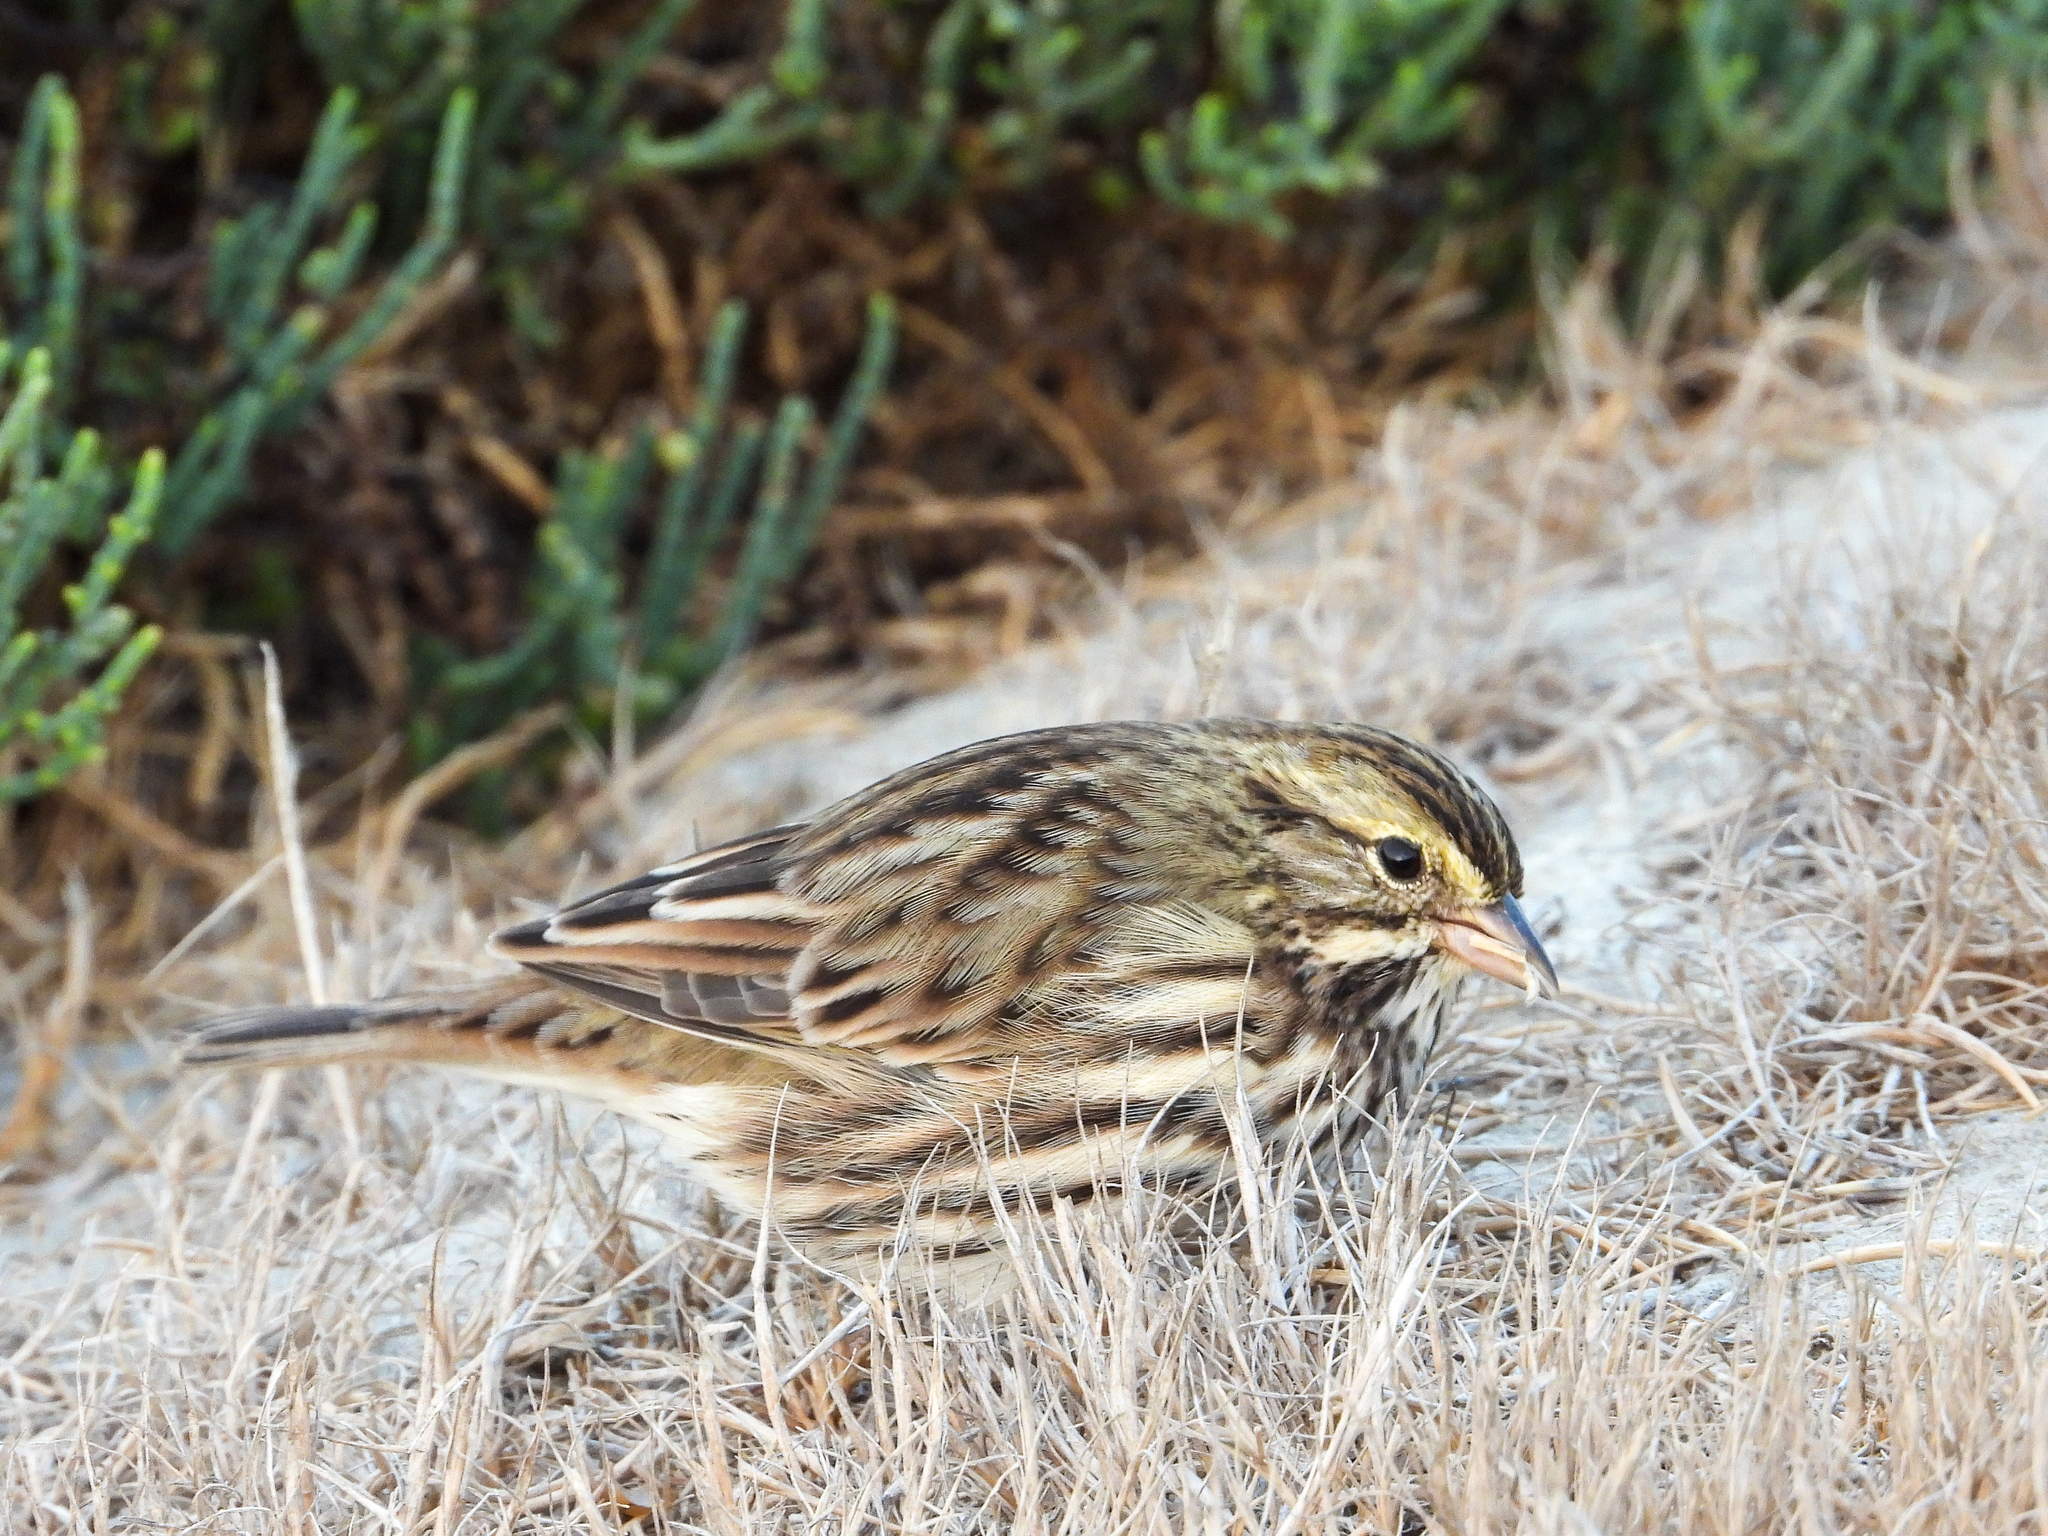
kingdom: Animalia
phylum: Chordata
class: Aves
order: Passeriformes
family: Passerellidae
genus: Passerculus
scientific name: Passerculus sandwichensis
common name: Savannah sparrow
